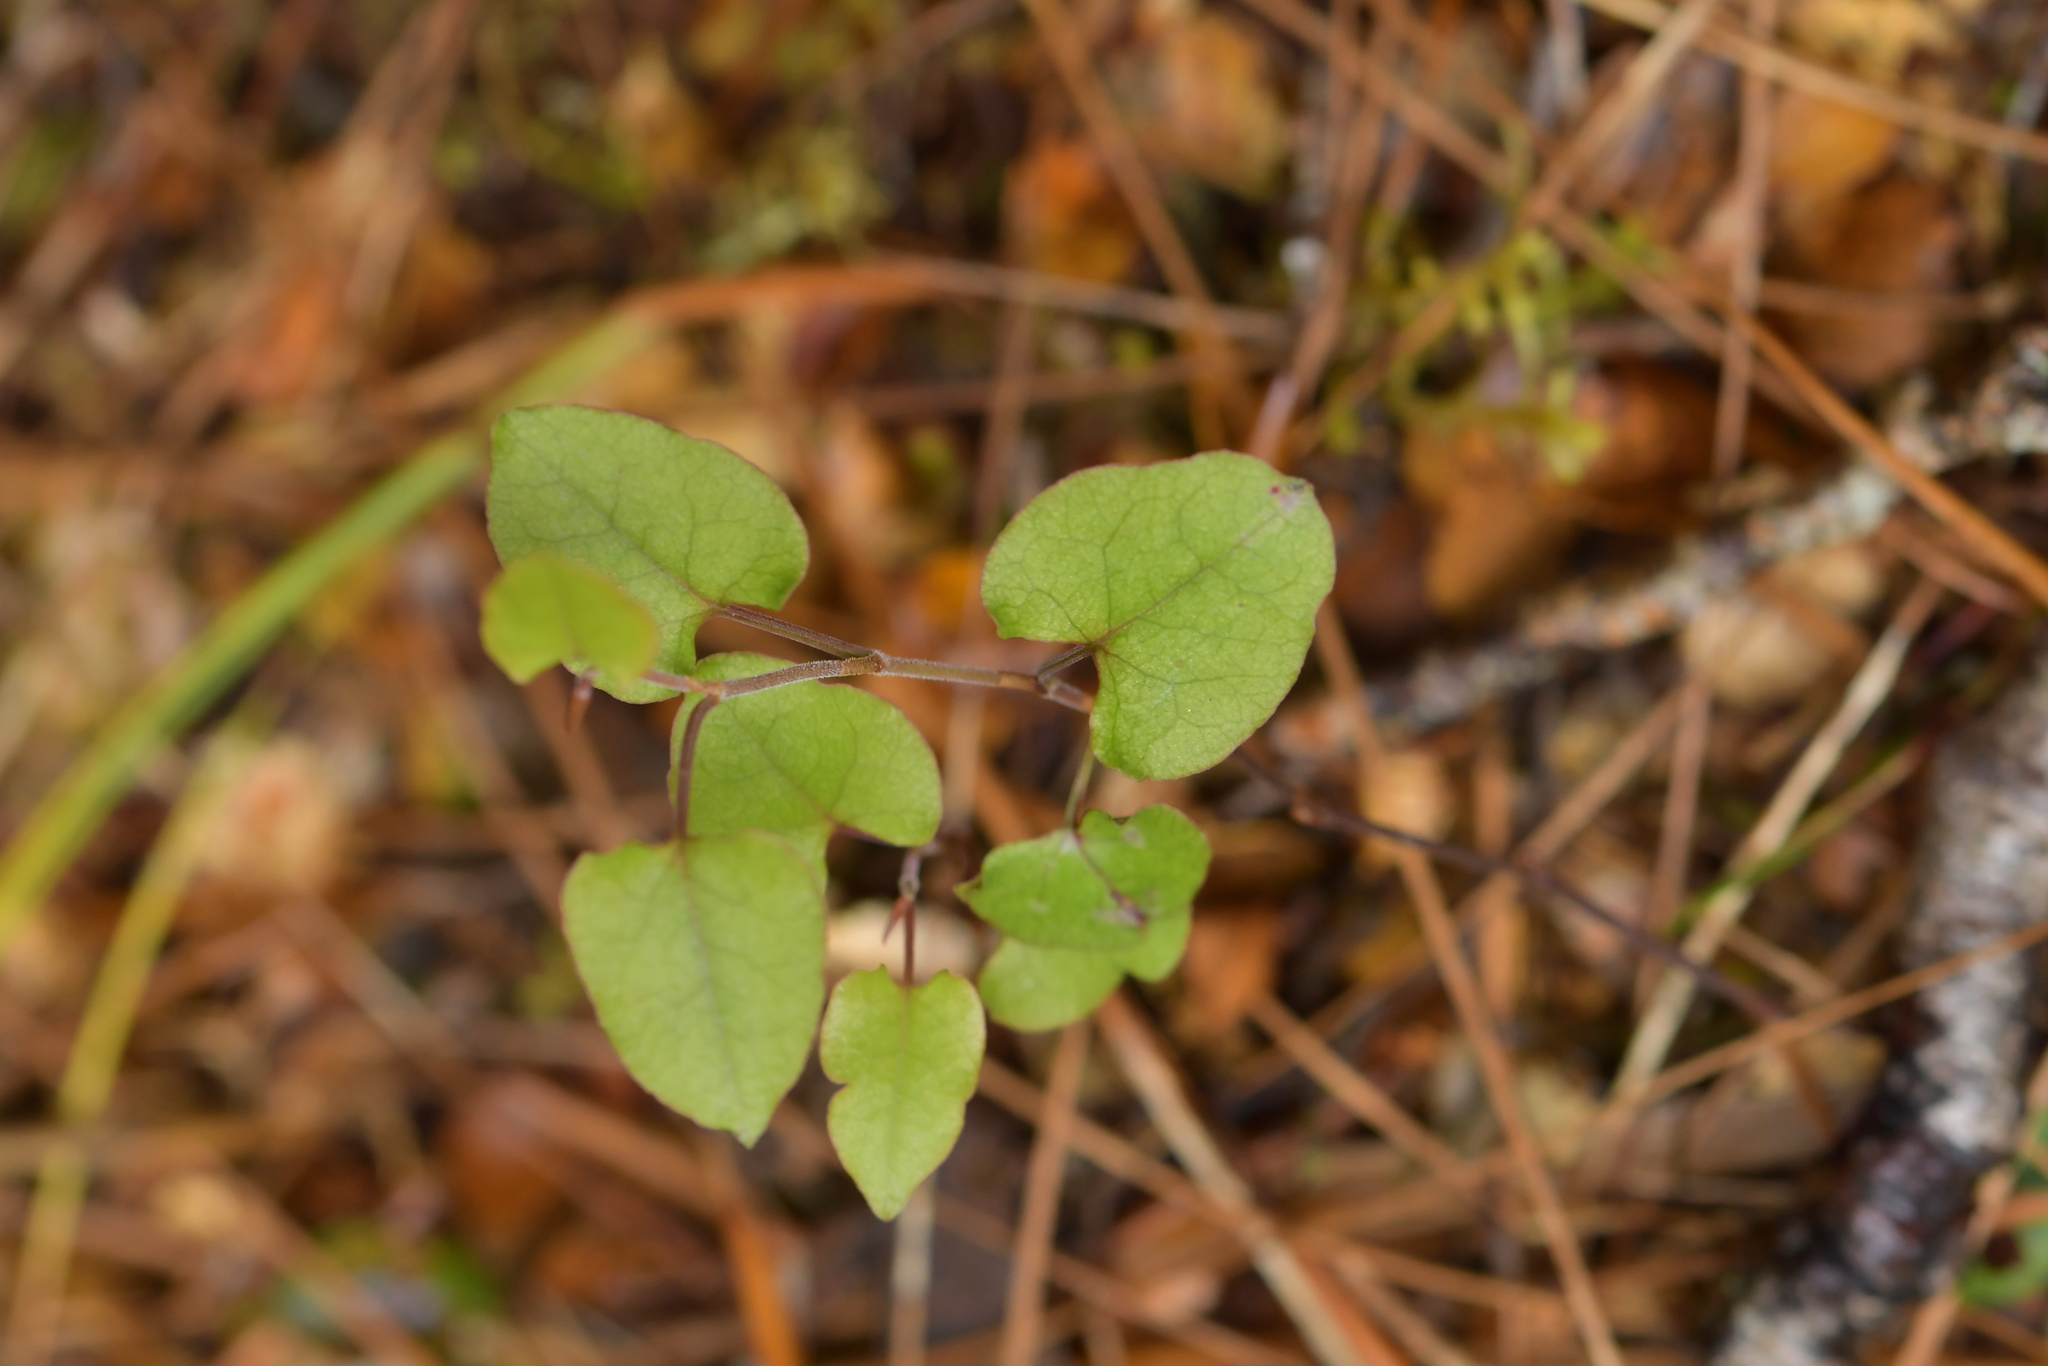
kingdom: Plantae
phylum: Tracheophyta
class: Magnoliopsida
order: Caryophyllales
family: Polygonaceae
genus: Muehlenbeckia
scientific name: Muehlenbeckia australis
